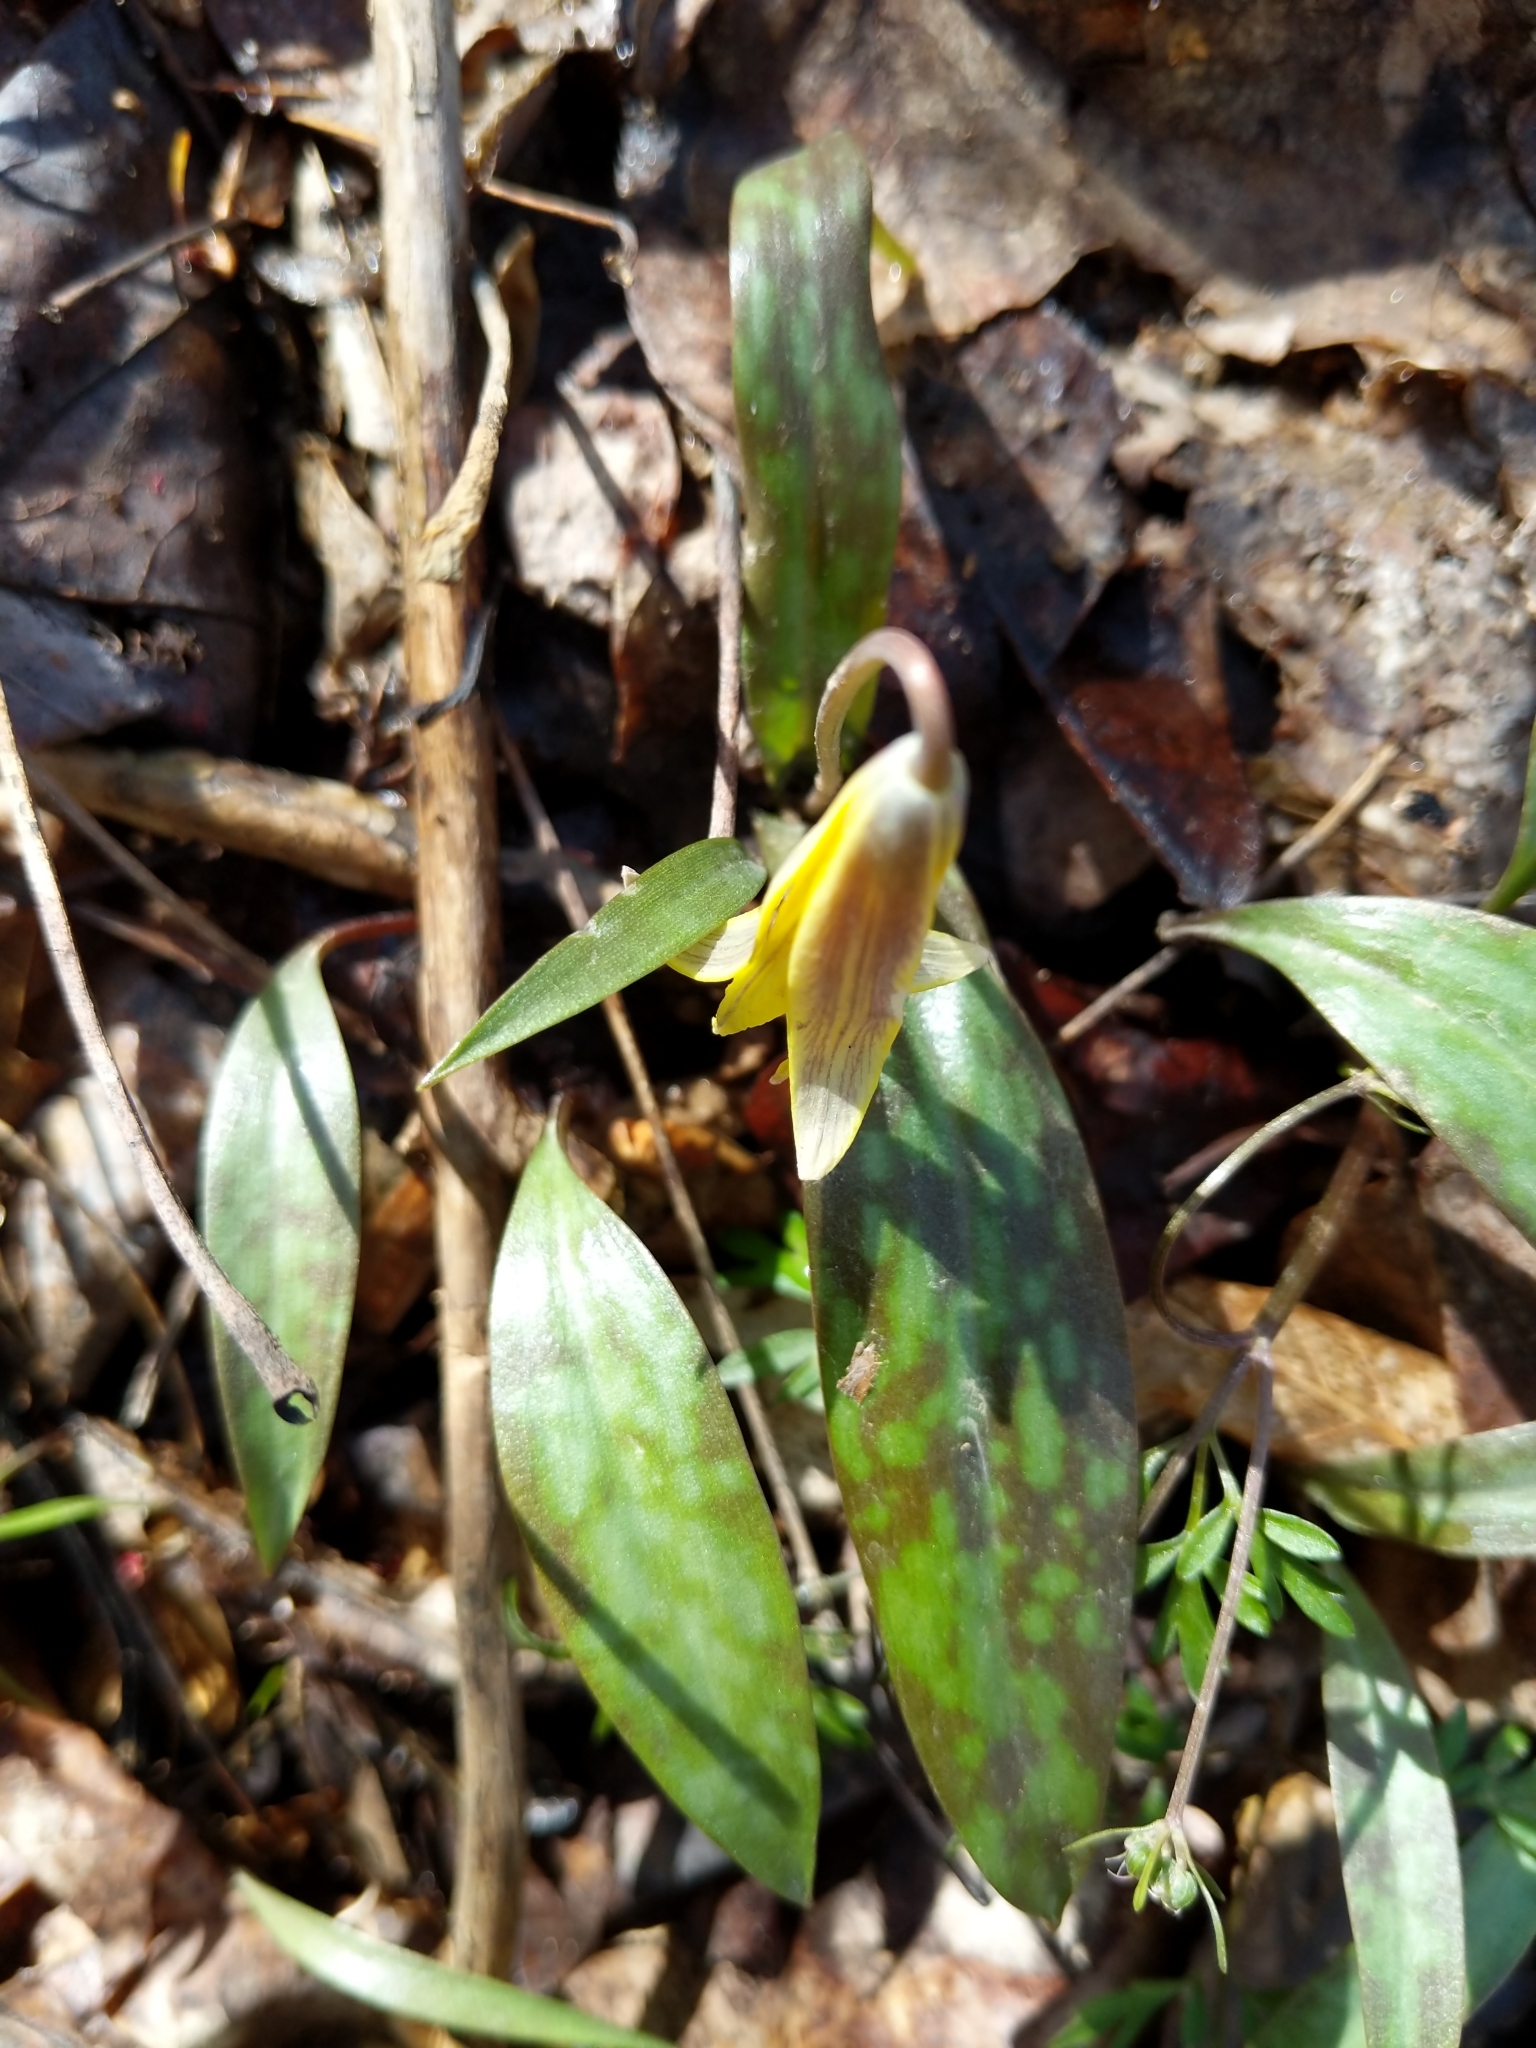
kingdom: Plantae
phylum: Tracheophyta
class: Liliopsida
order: Liliales
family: Liliaceae
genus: Erythronium
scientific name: Erythronium americanum
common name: Yellow adder's-tongue
